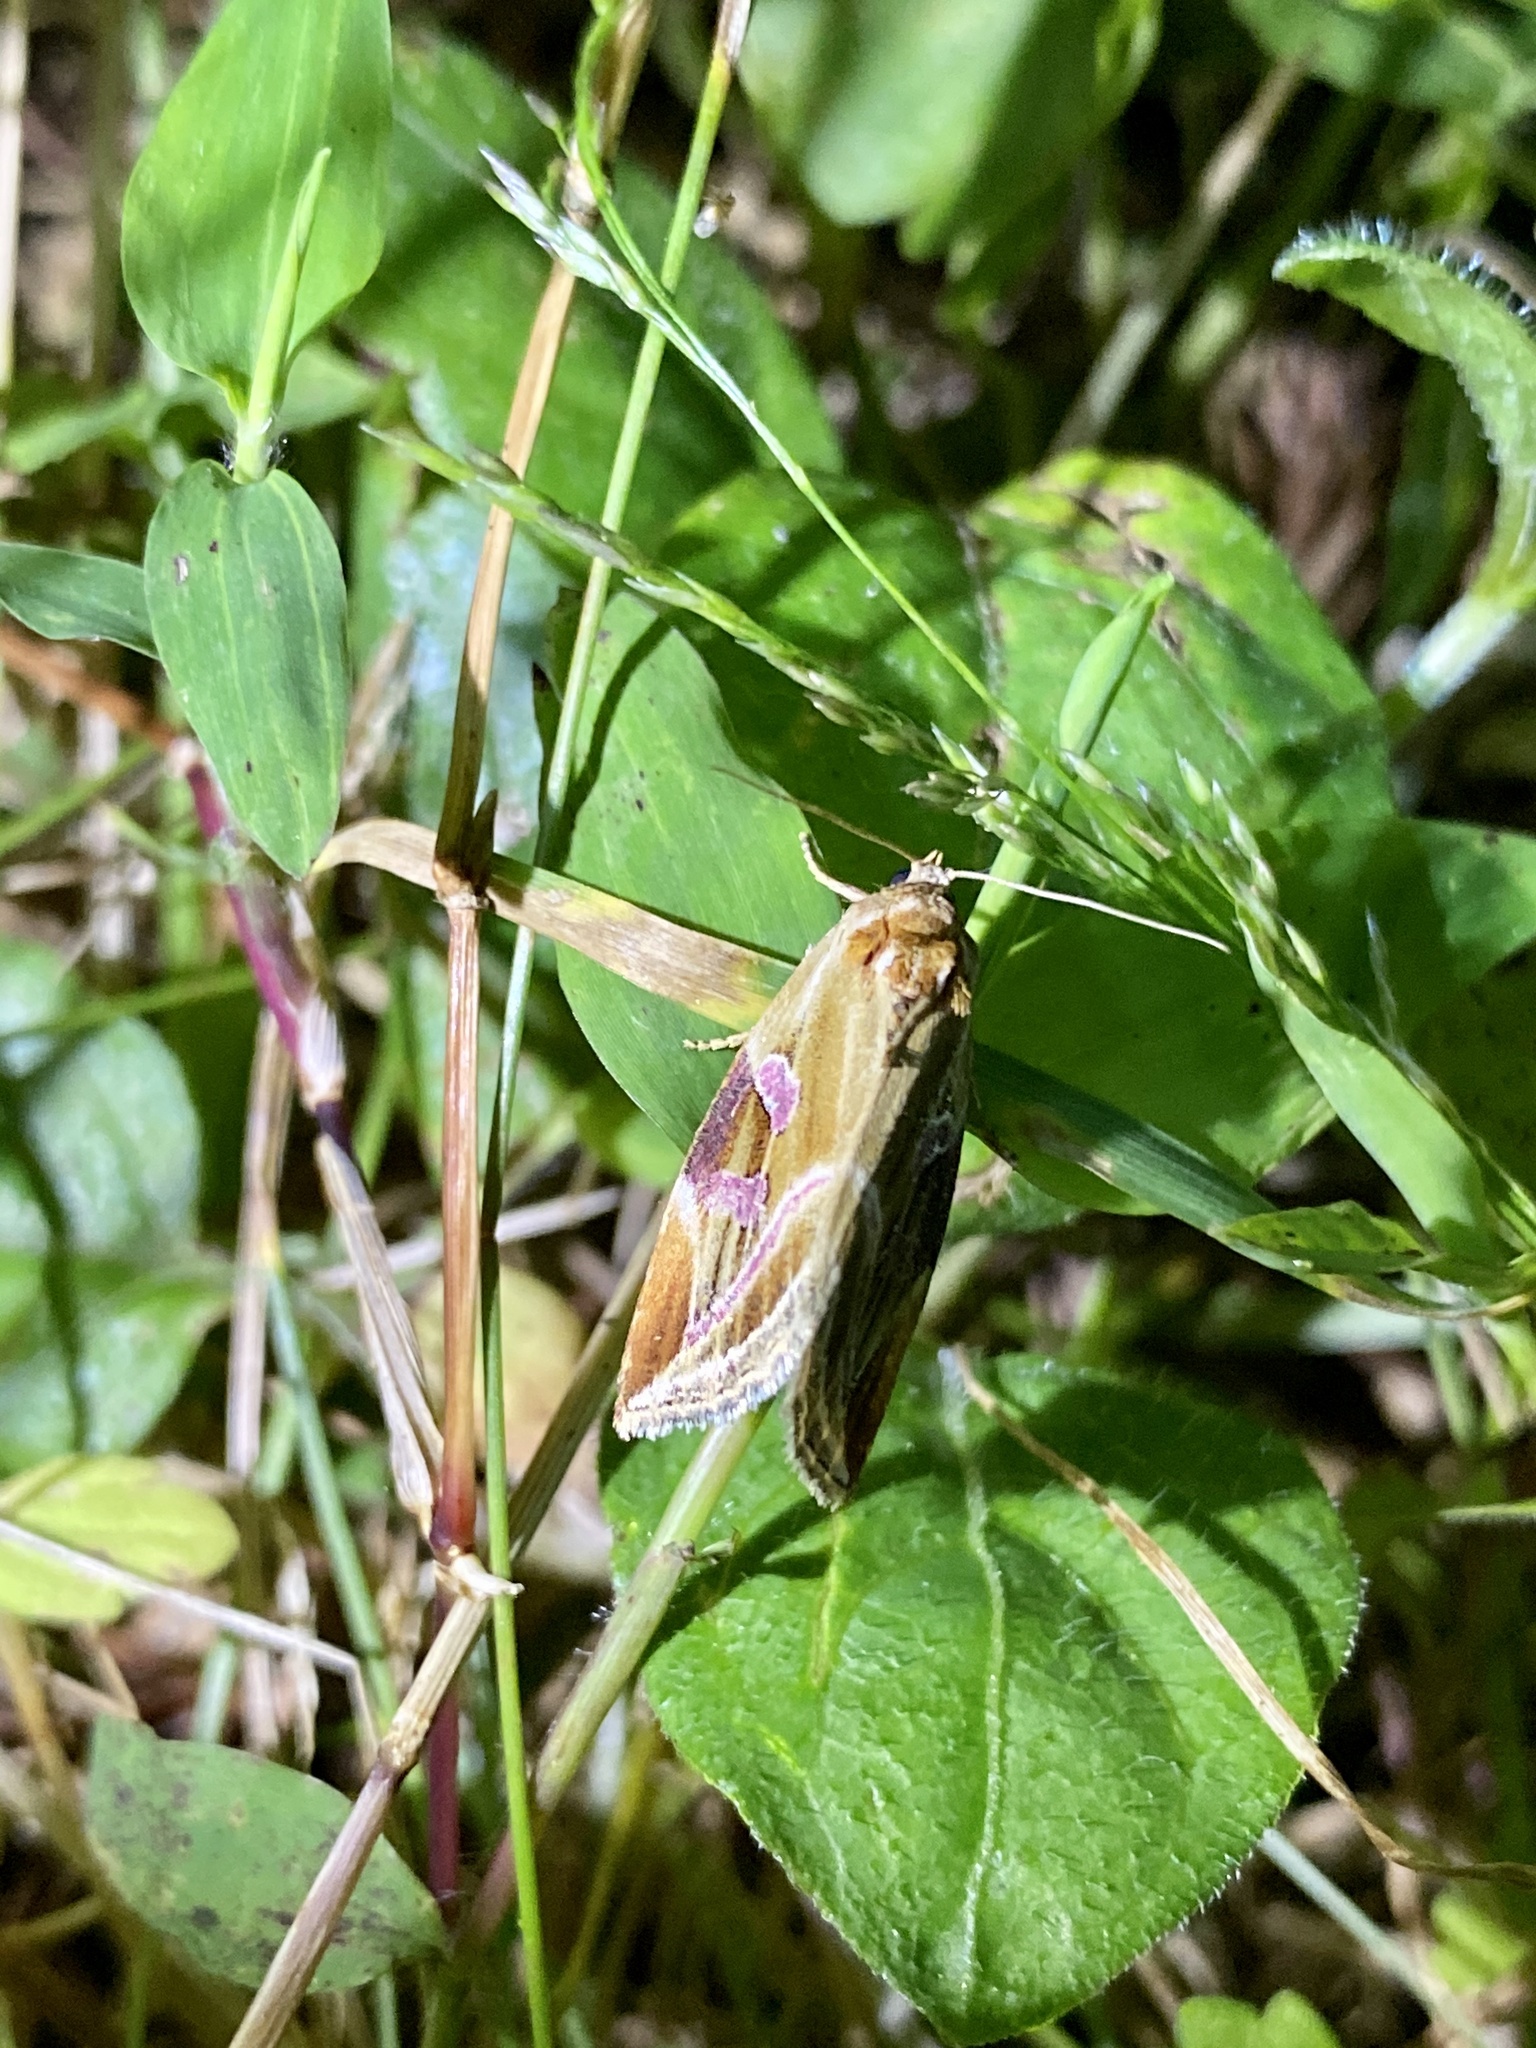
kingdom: Animalia
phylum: Arthropoda
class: Insecta
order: Lepidoptera
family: Noctuidae
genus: Micardia
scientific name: Micardia pulchra
